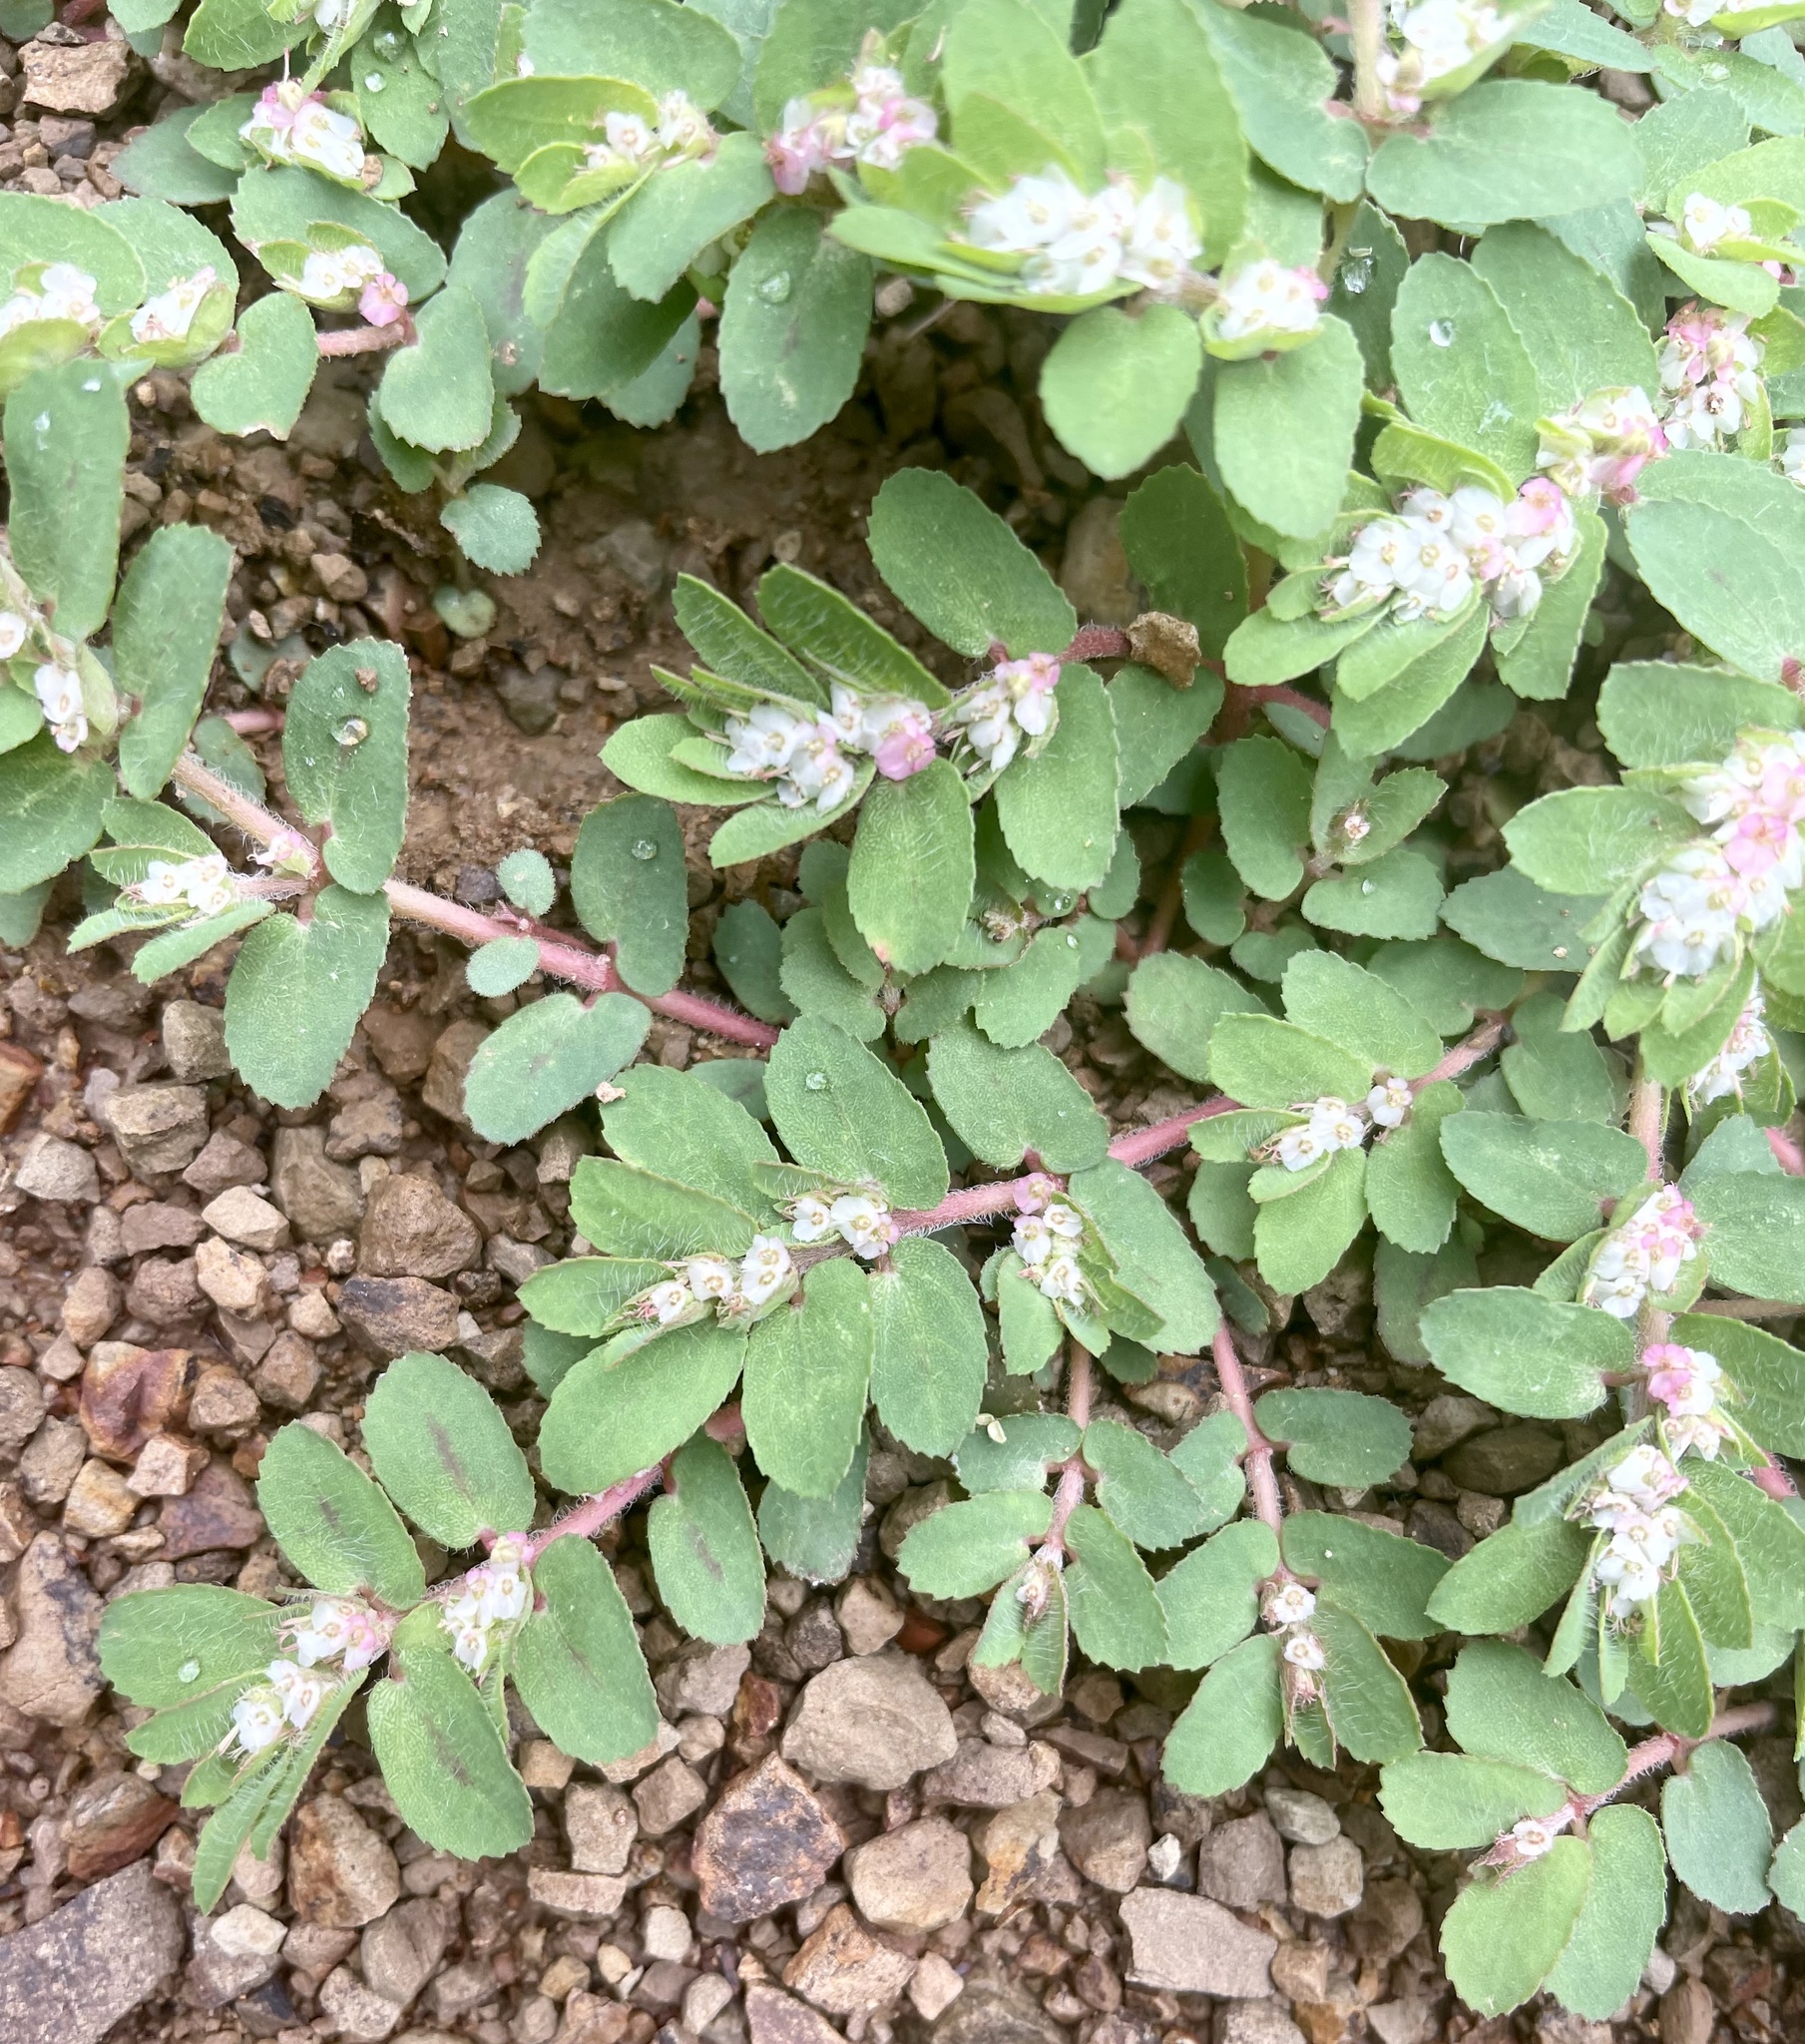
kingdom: Plantae
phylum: Tracheophyta
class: Magnoliopsida
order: Malpighiales
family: Euphorbiaceae
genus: Euphorbia
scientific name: Euphorbia dioeca
